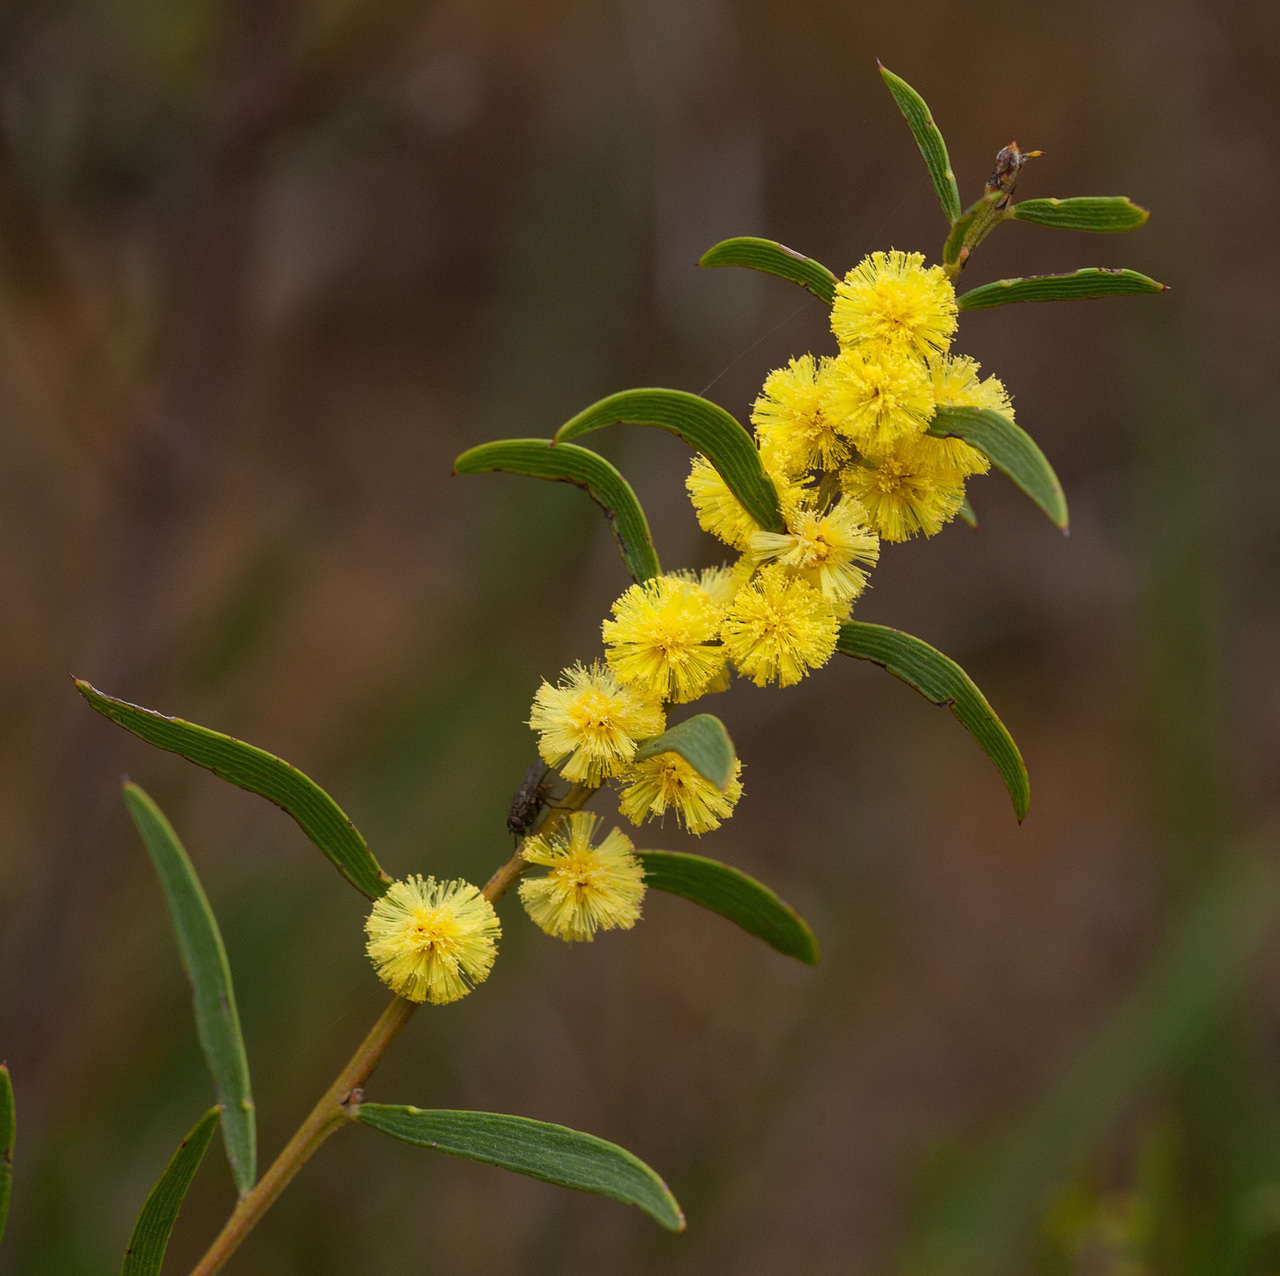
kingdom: Plantae
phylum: Tracheophyta
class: Magnoliopsida
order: Fabales
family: Fabaceae
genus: Acacia
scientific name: Acacia lanigera
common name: Hairy wattle
